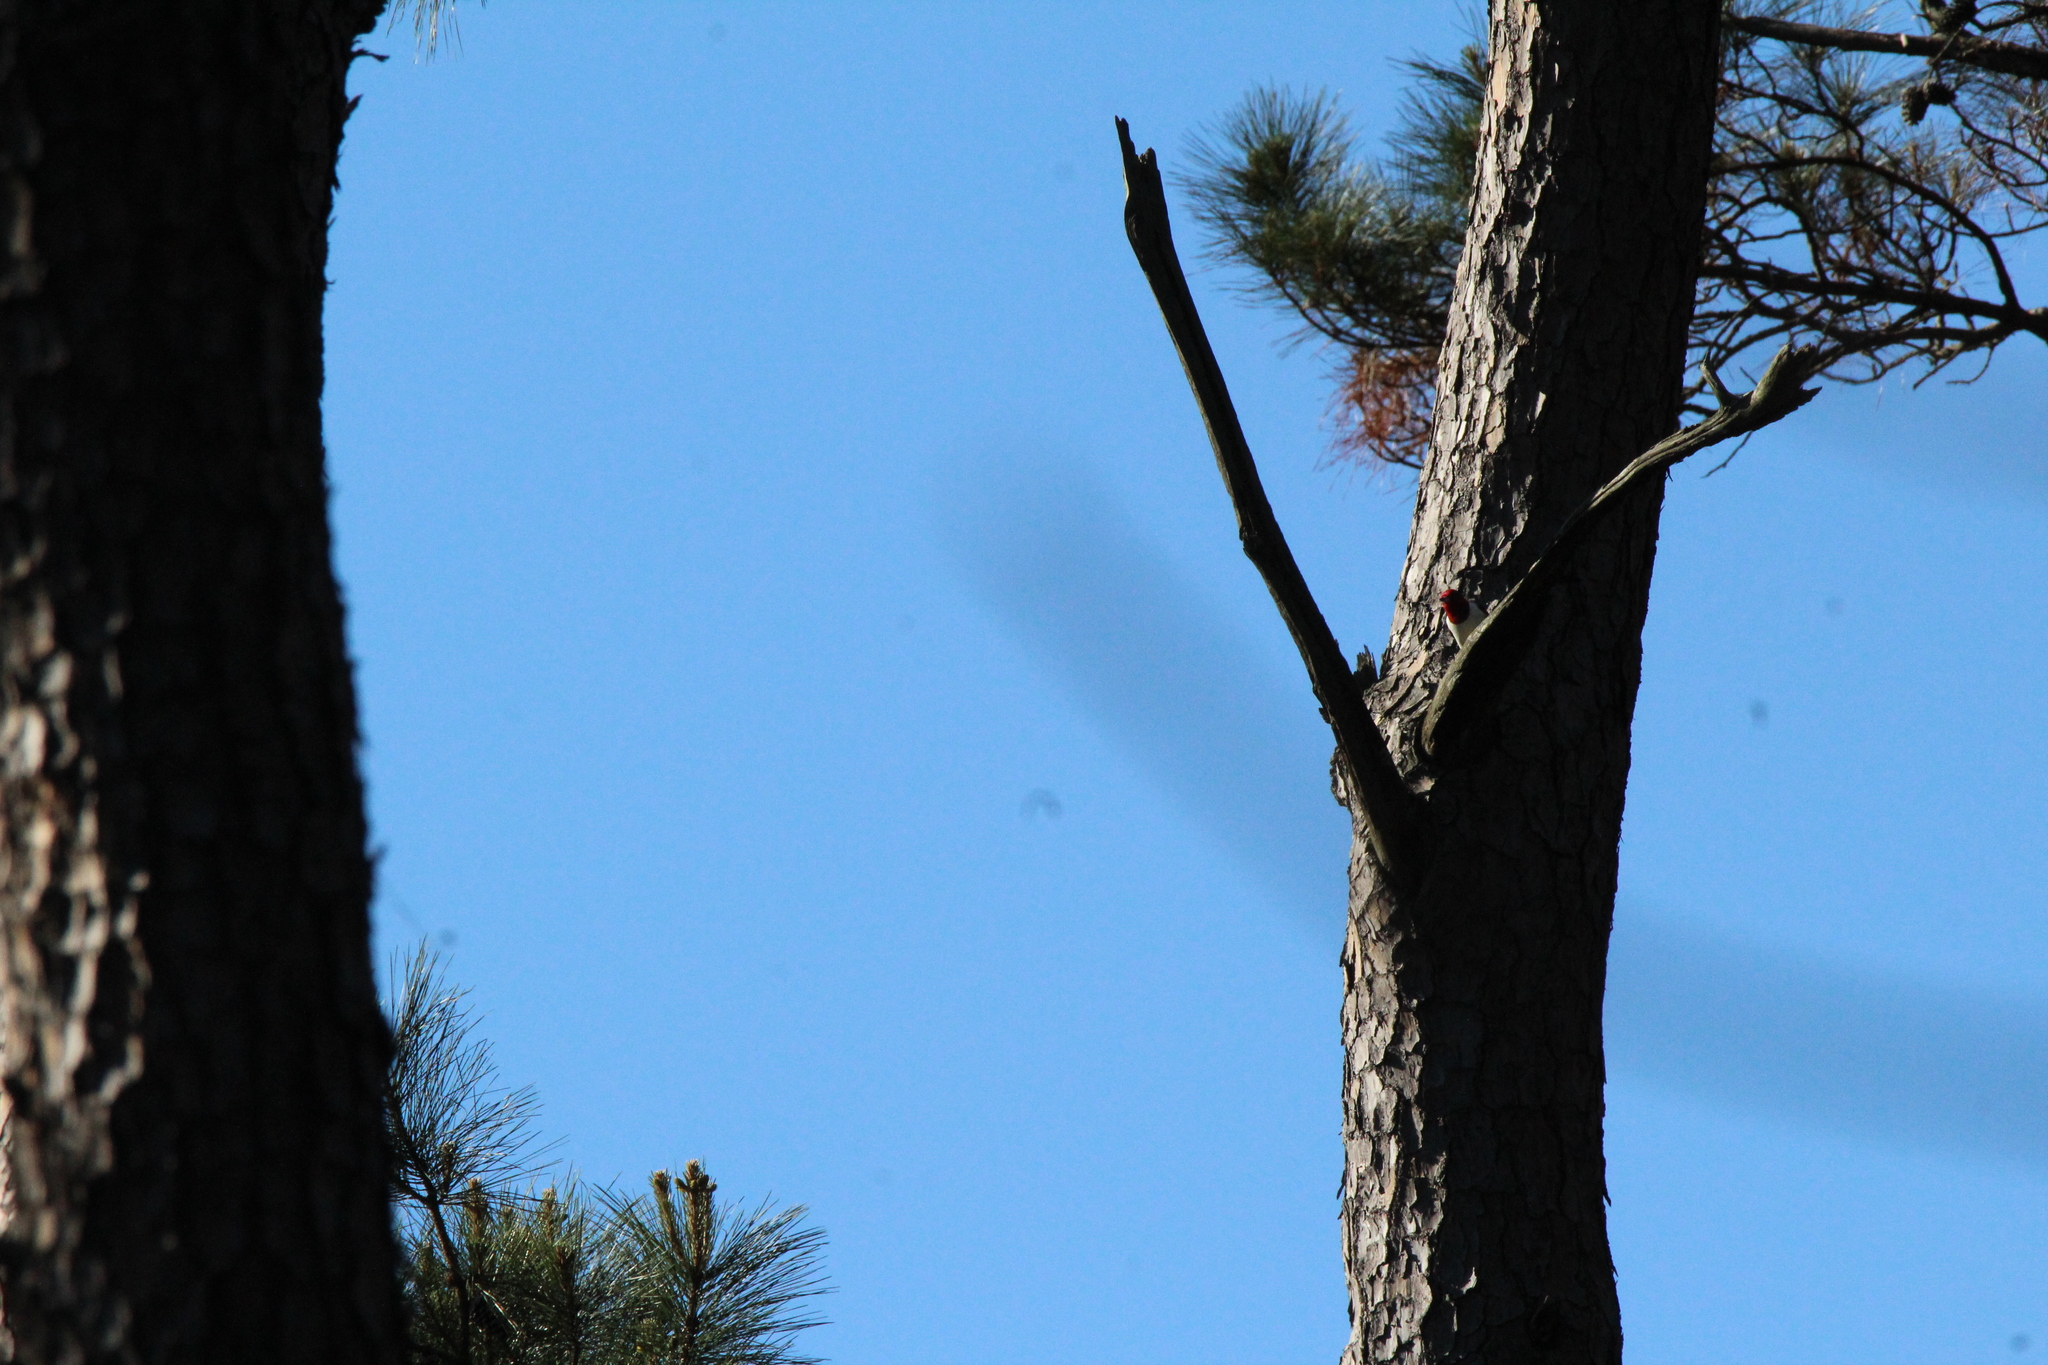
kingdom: Animalia
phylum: Chordata
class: Aves
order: Piciformes
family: Picidae
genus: Melanerpes
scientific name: Melanerpes erythrocephalus
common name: Red-headed woodpecker
